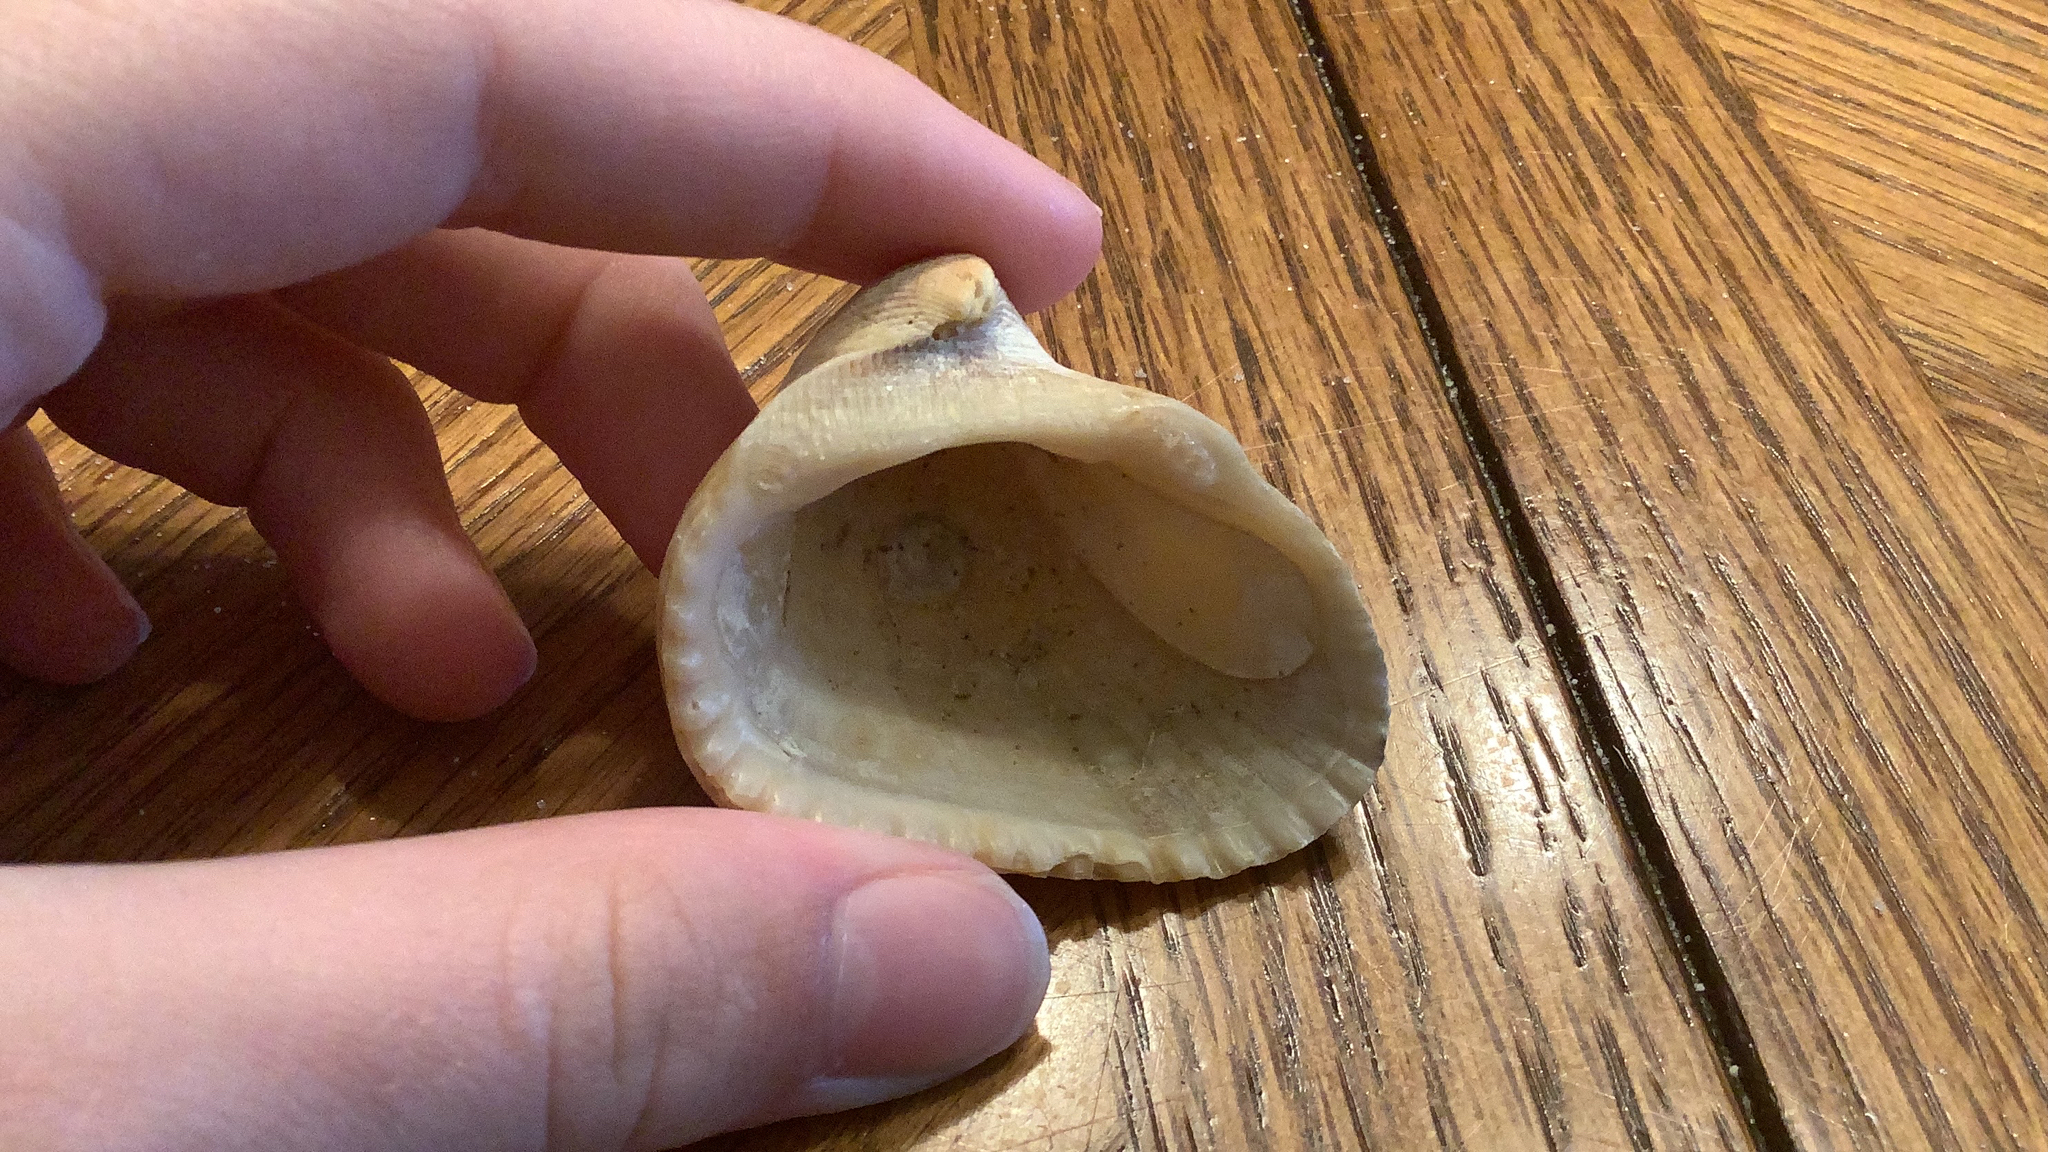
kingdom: Animalia
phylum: Mollusca
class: Bivalvia
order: Arcida
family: Noetiidae
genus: Noetia
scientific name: Noetia ponderosa
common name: Ponderous ark
